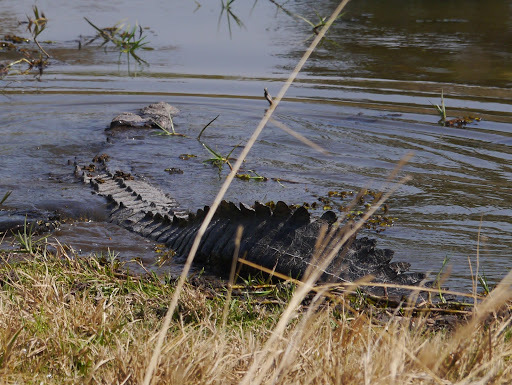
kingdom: Animalia
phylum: Chordata
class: Crocodylia
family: Crocodylidae
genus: Crocodylus
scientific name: Crocodylus niloticus
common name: Nile crocodile
